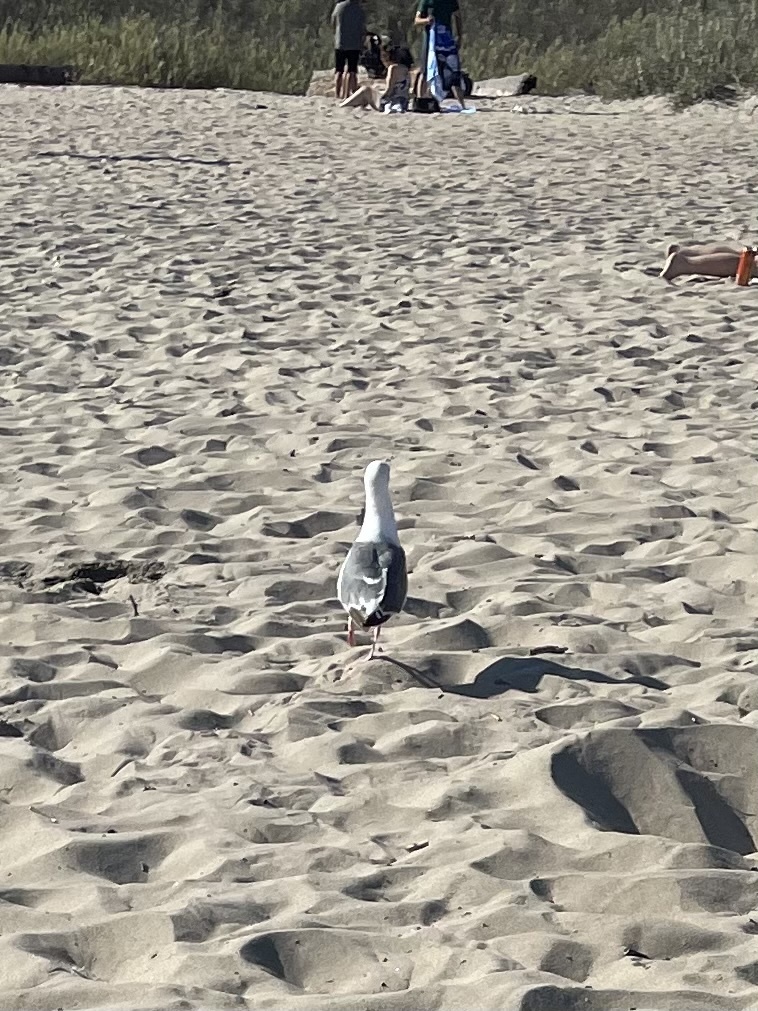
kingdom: Animalia
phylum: Chordata
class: Aves
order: Charadriiformes
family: Laridae
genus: Larus
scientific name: Larus occidentalis
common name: Western gull
